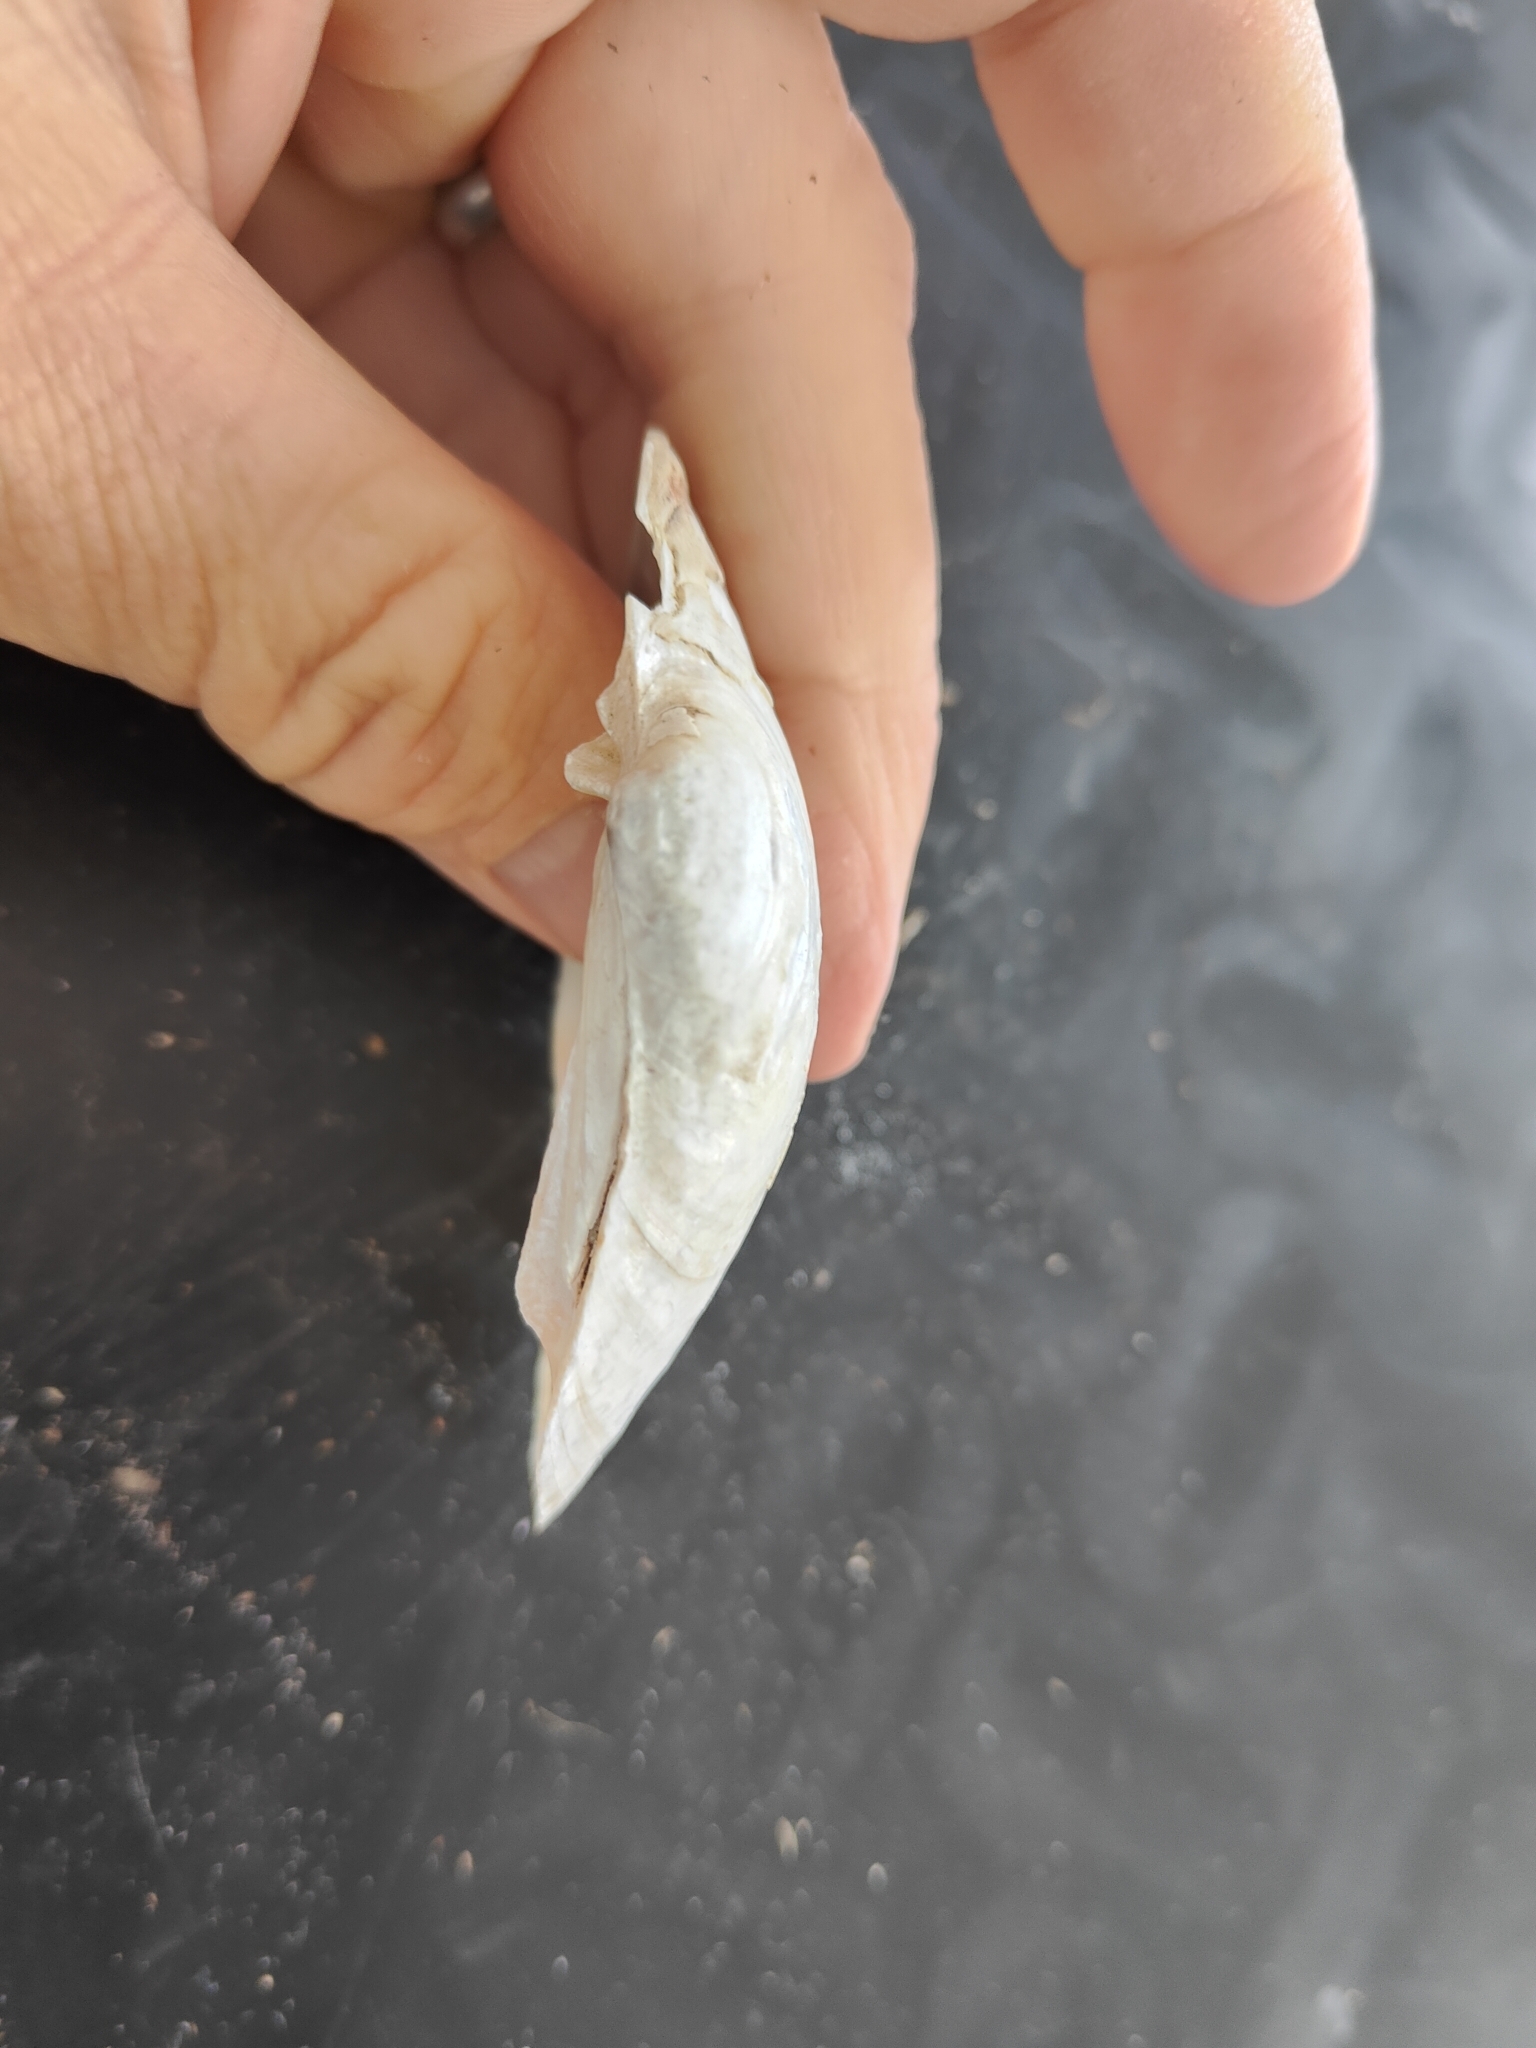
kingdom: Animalia
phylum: Mollusca
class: Bivalvia
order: Unionida
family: Unionidae
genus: Lampsilis
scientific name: Lampsilis cardium
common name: Plain pocketbook
